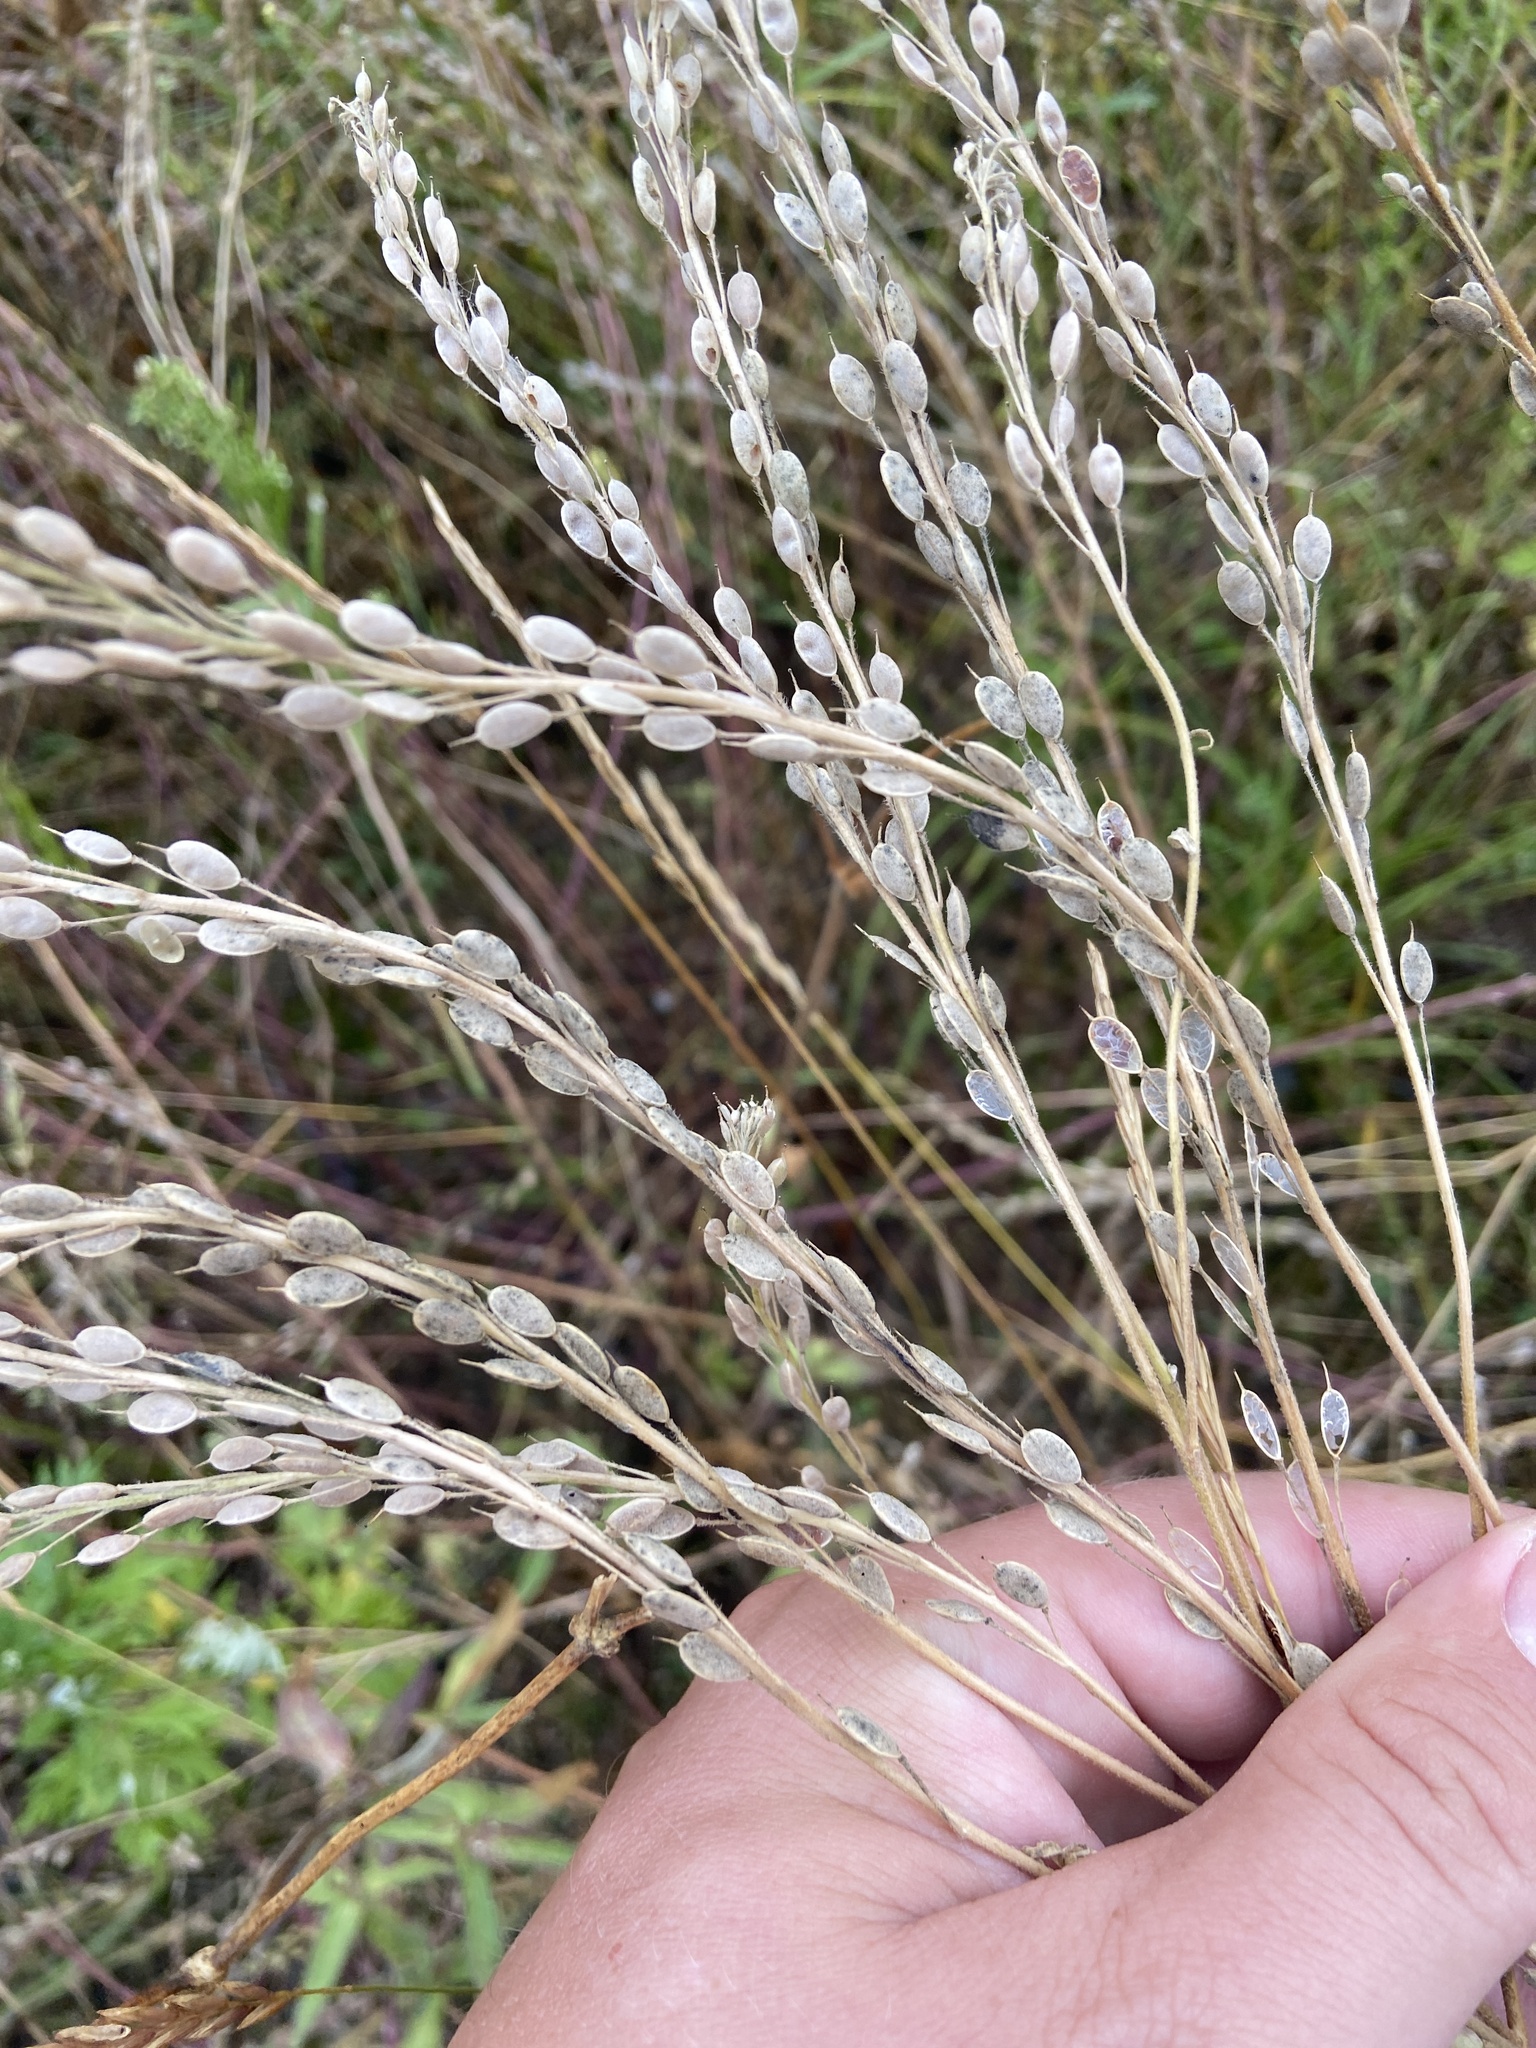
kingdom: Plantae
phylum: Tracheophyta
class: Magnoliopsida
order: Brassicales
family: Brassicaceae
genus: Berteroa
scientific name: Berteroa incana
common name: Hoary alison
